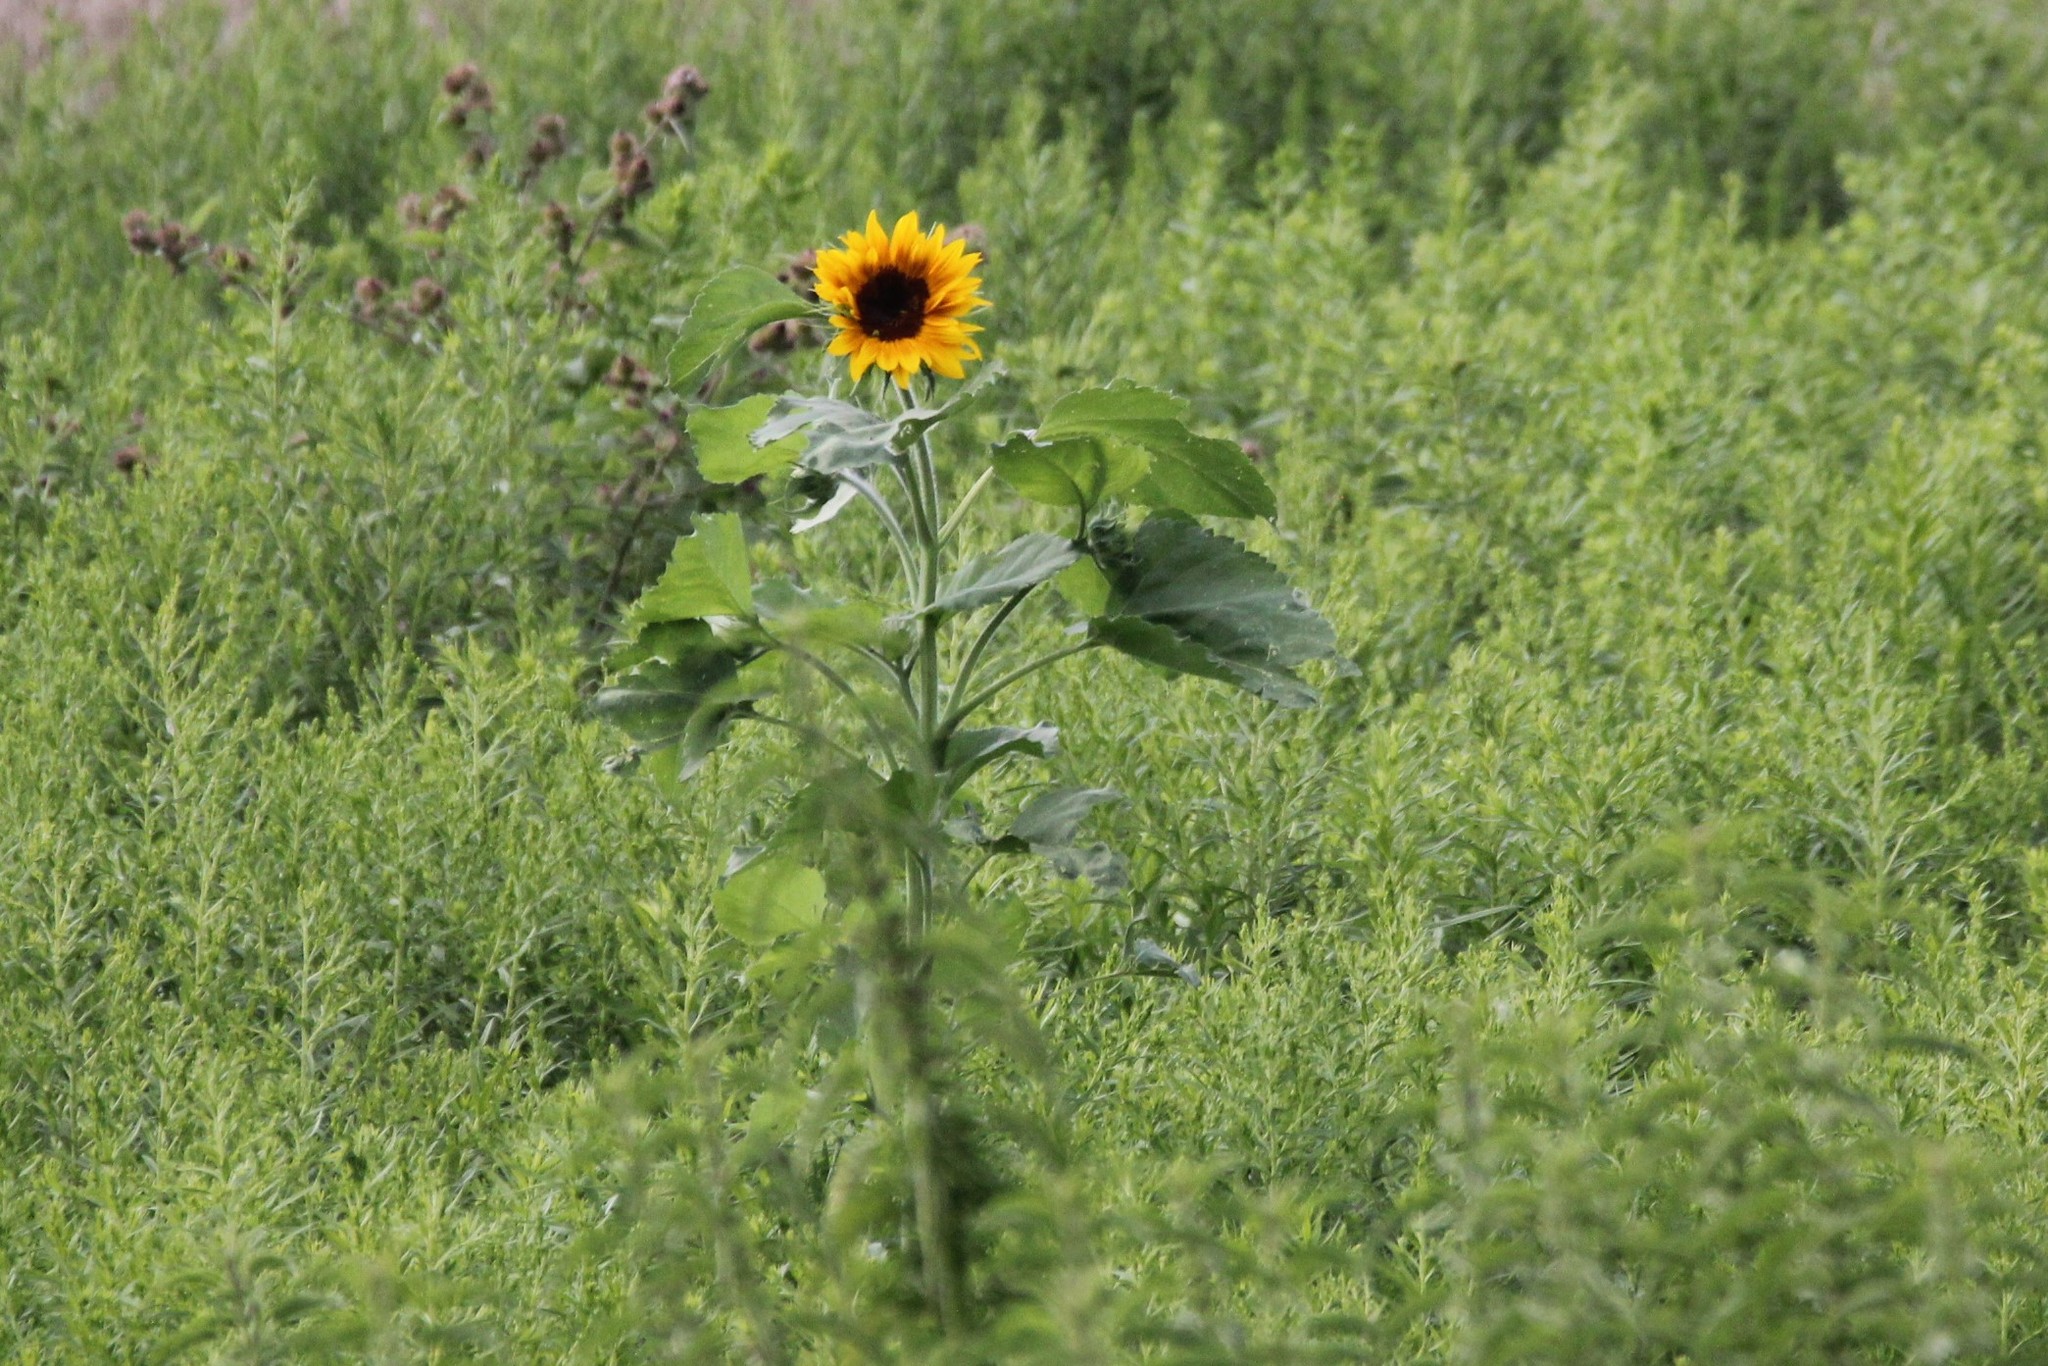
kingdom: Plantae
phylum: Tracheophyta
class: Magnoliopsida
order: Asterales
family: Asteraceae
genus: Helianthus
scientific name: Helianthus annuus
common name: Sunflower
